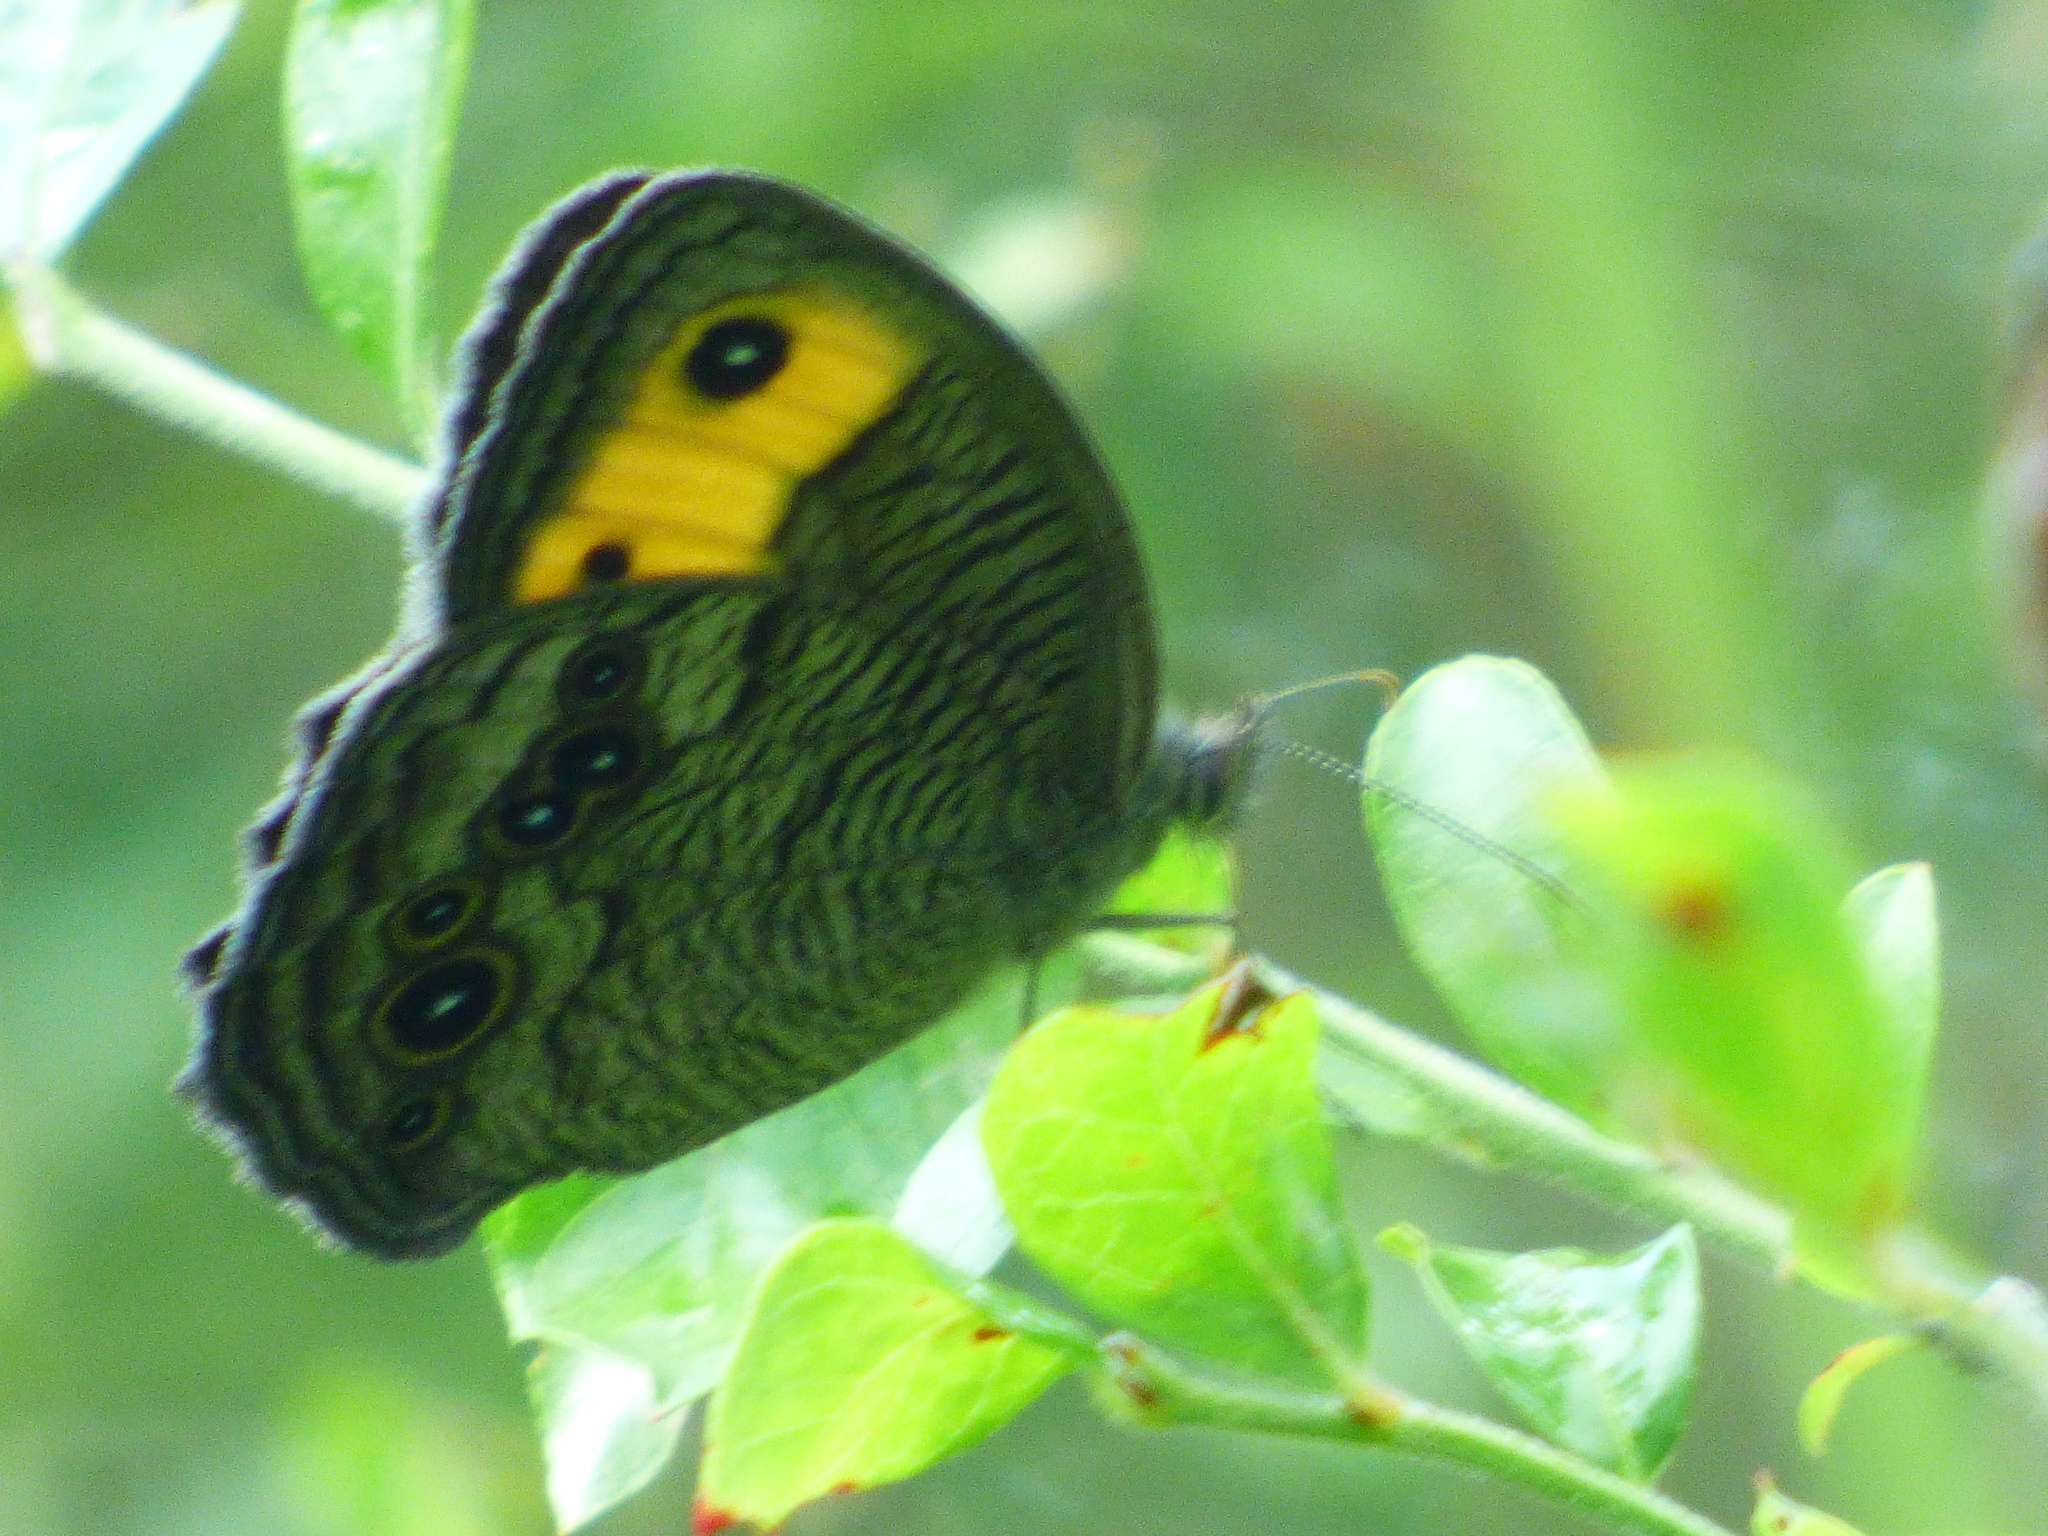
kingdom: Animalia
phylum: Arthropoda
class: Insecta
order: Lepidoptera
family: Nymphalidae
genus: Cercyonis
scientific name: Cercyonis pegala
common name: Common wood-nymph
